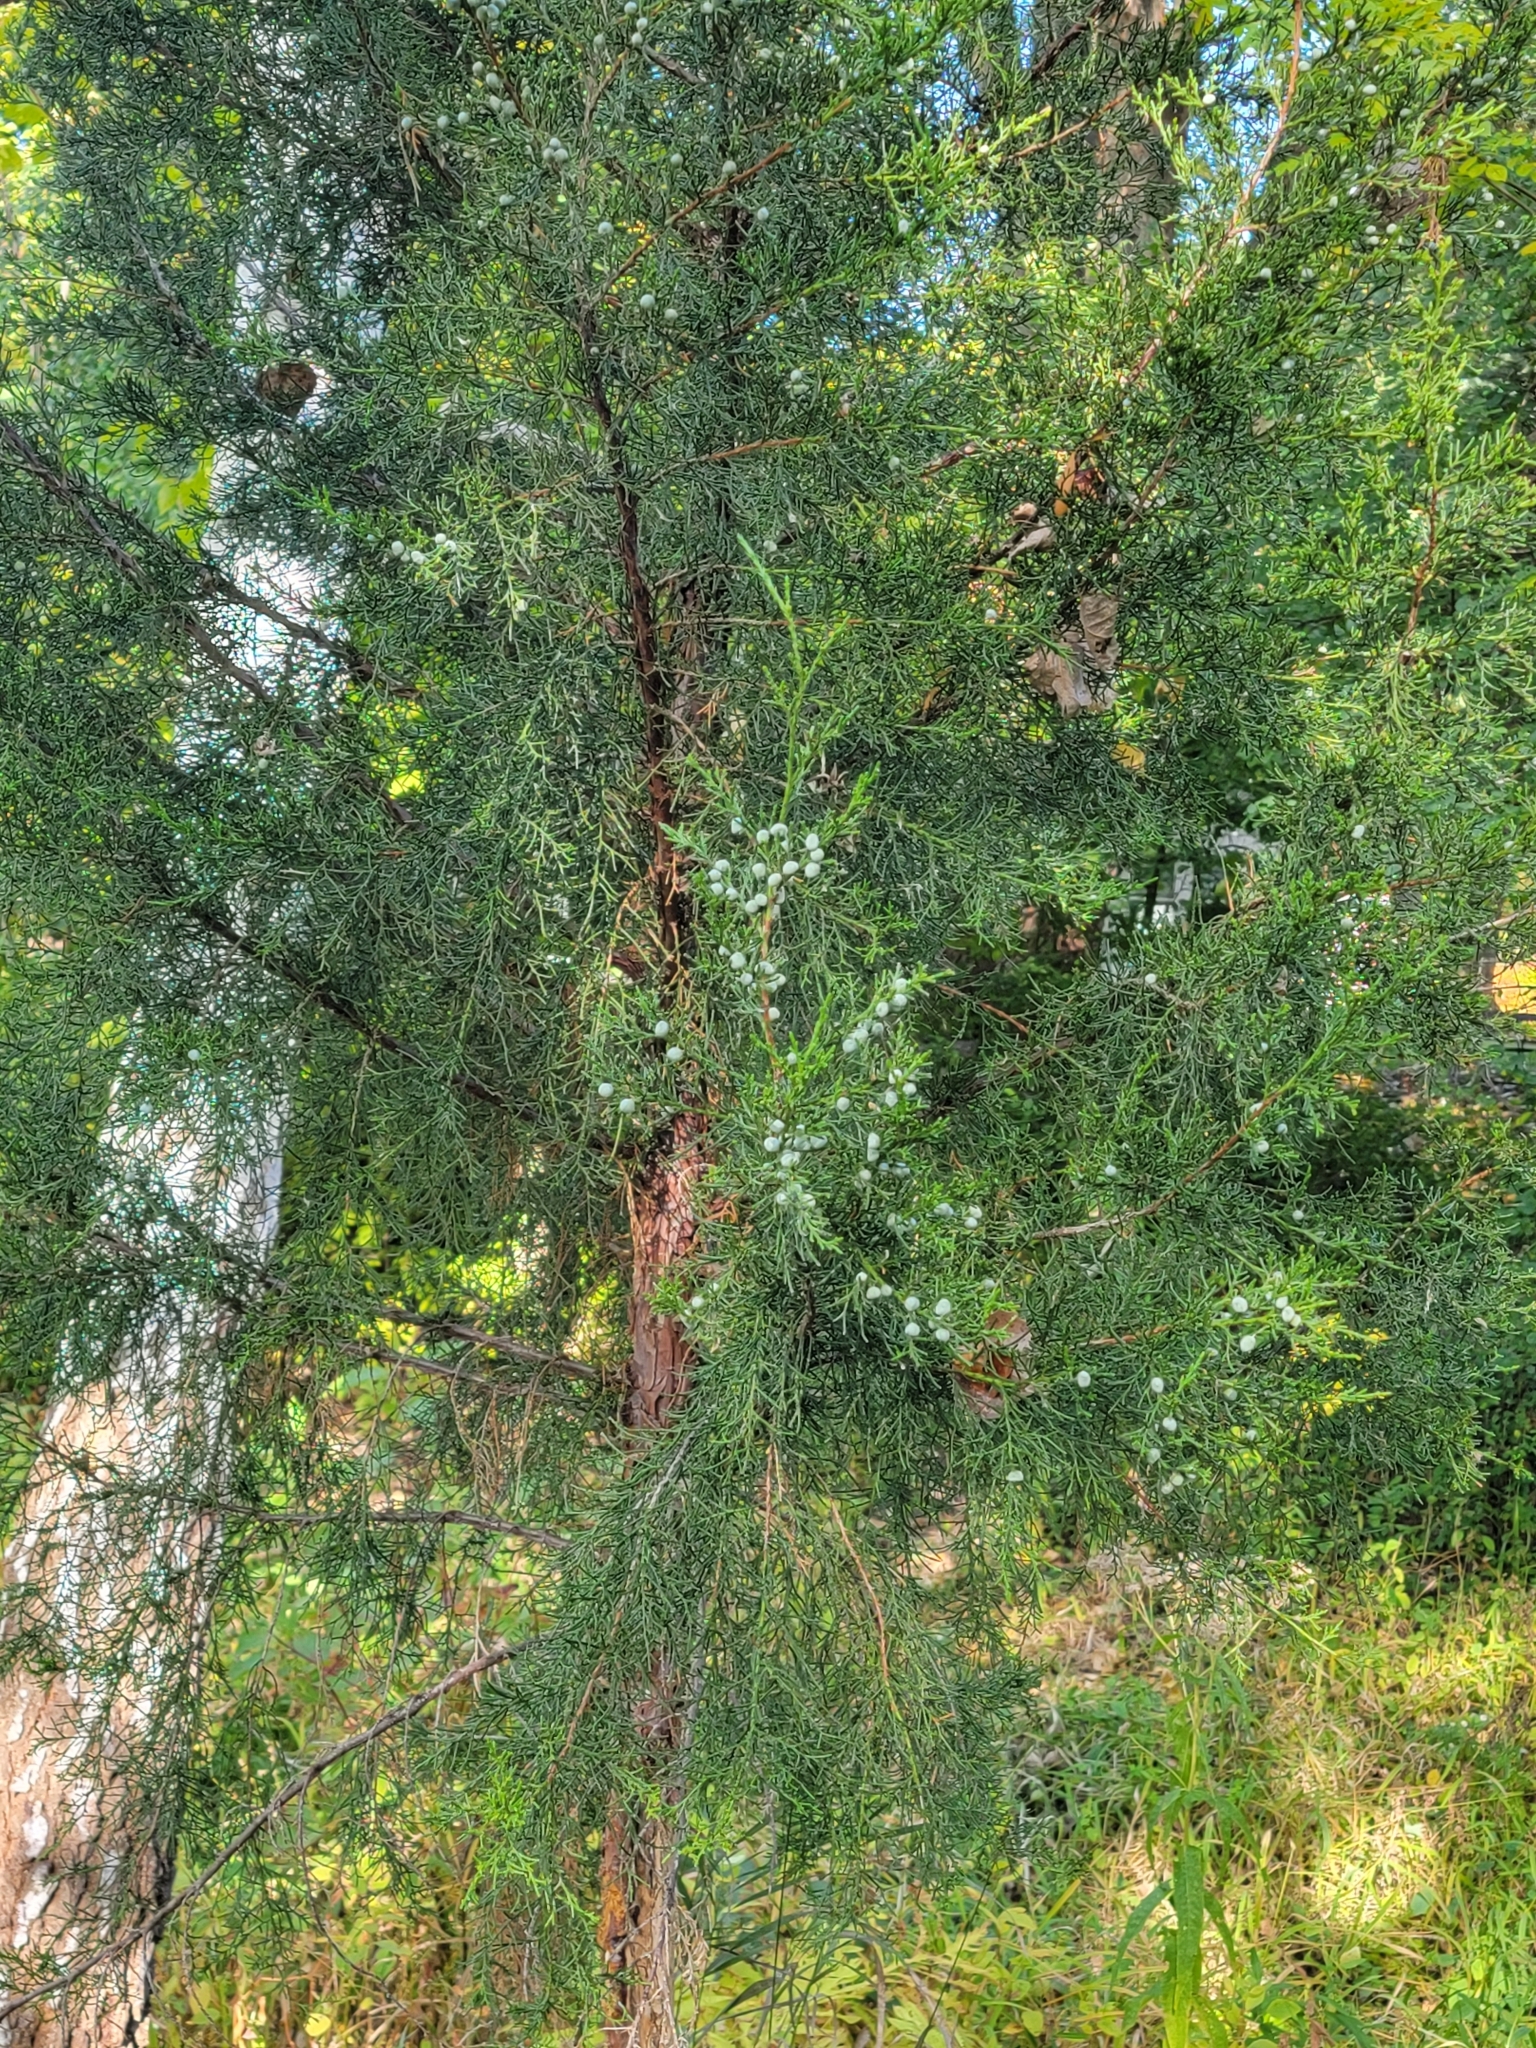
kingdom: Plantae
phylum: Tracheophyta
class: Pinopsida
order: Pinales
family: Cupressaceae
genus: Juniperus
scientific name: Juniperus virginiana
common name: Red juniper
